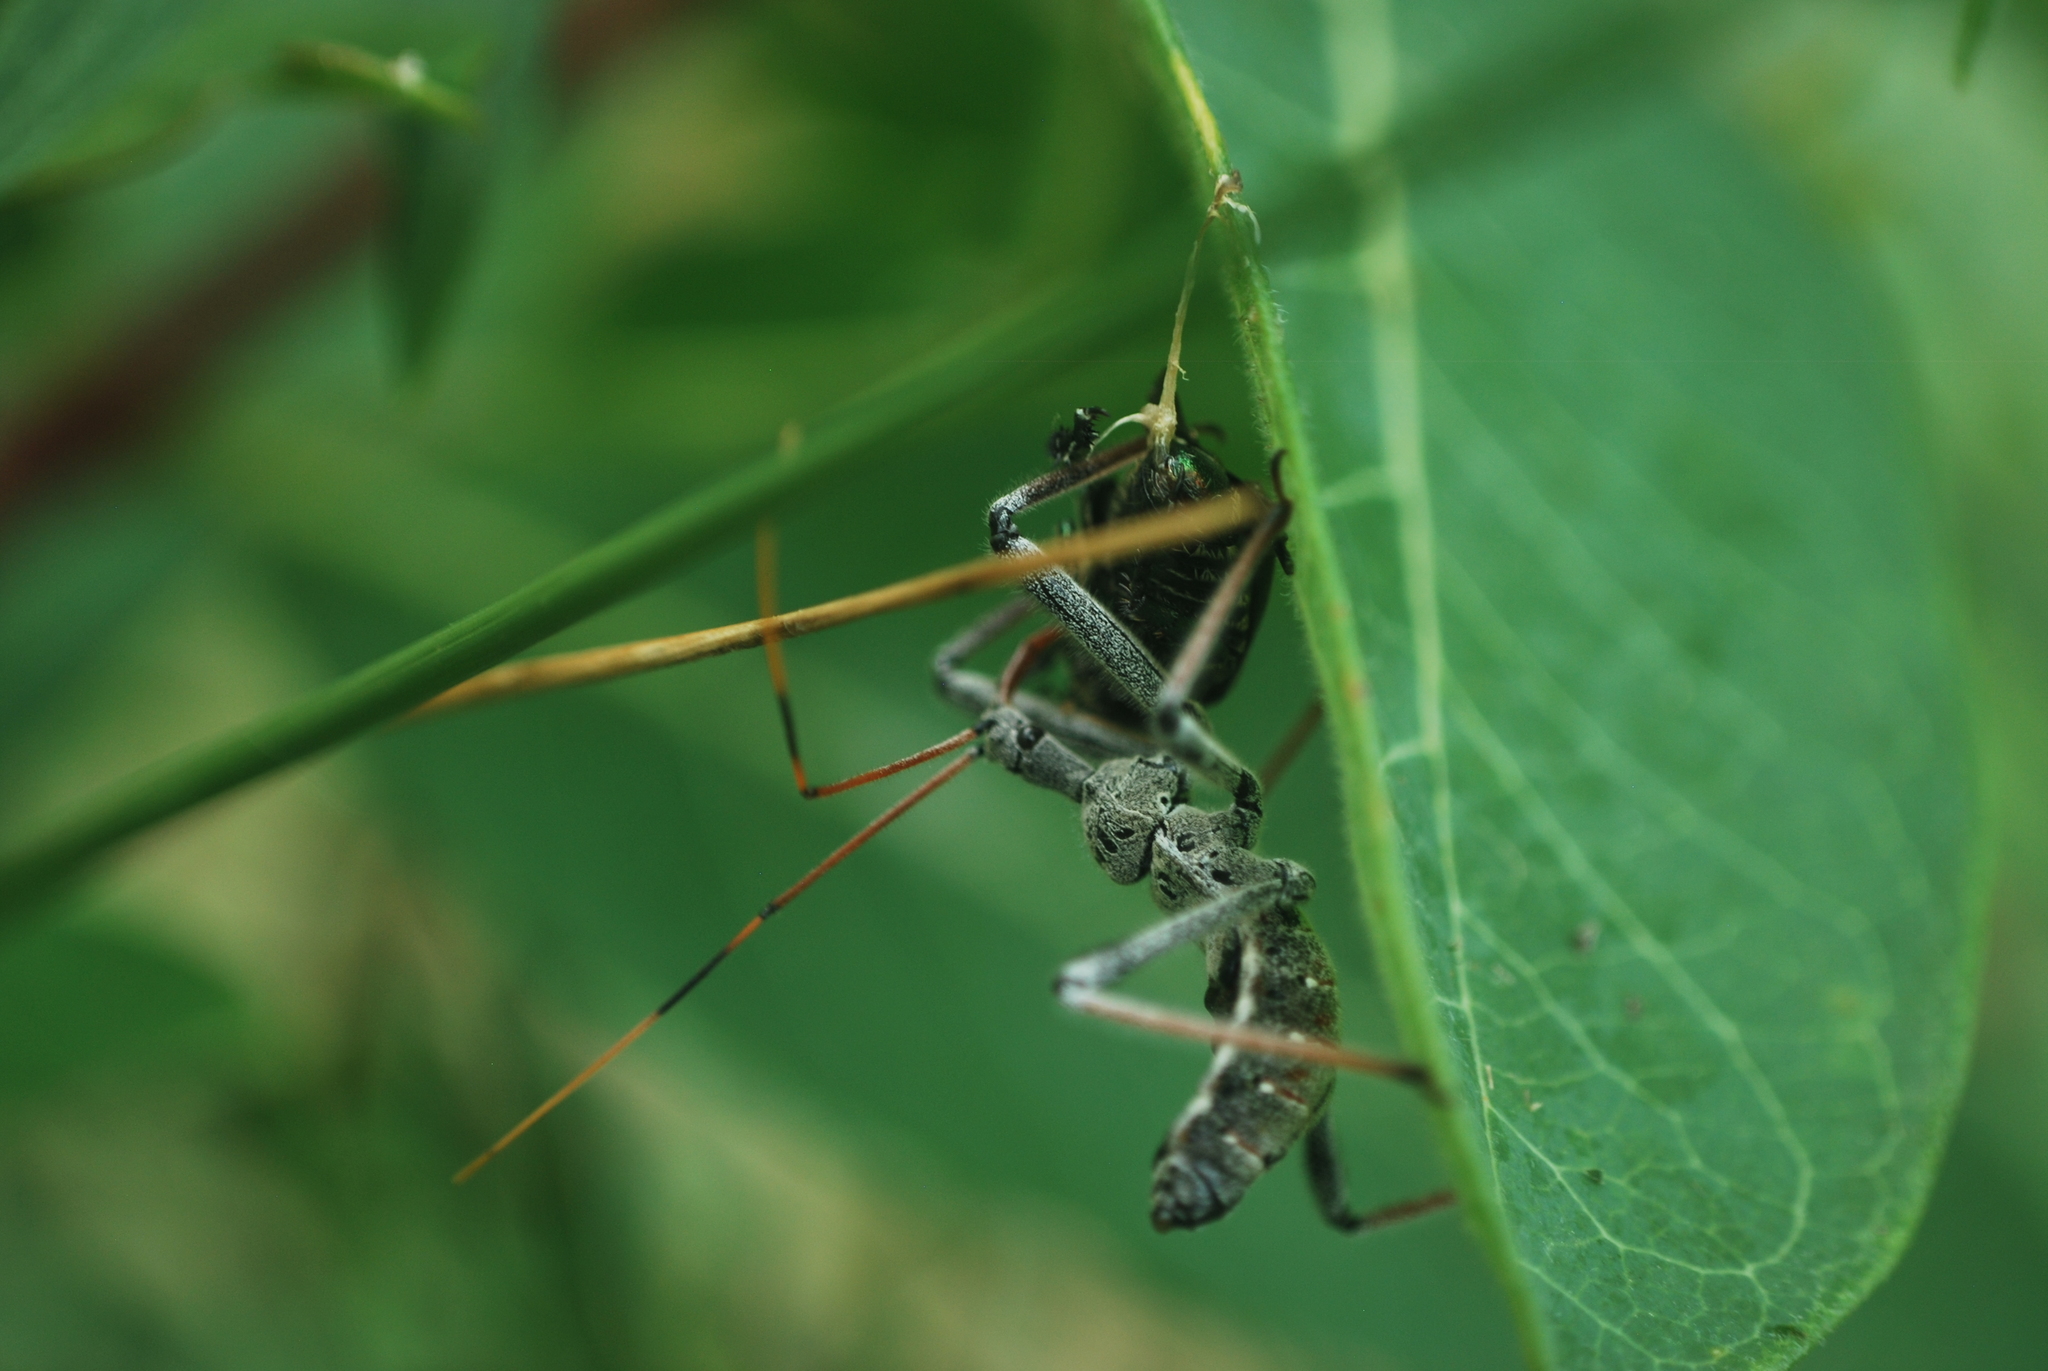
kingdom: Animalia
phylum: Arthropoda
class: Insecta
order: Hemiptera
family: Reduviidae
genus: Arilus
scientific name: Arilus cristatus
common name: North american wheel bug
